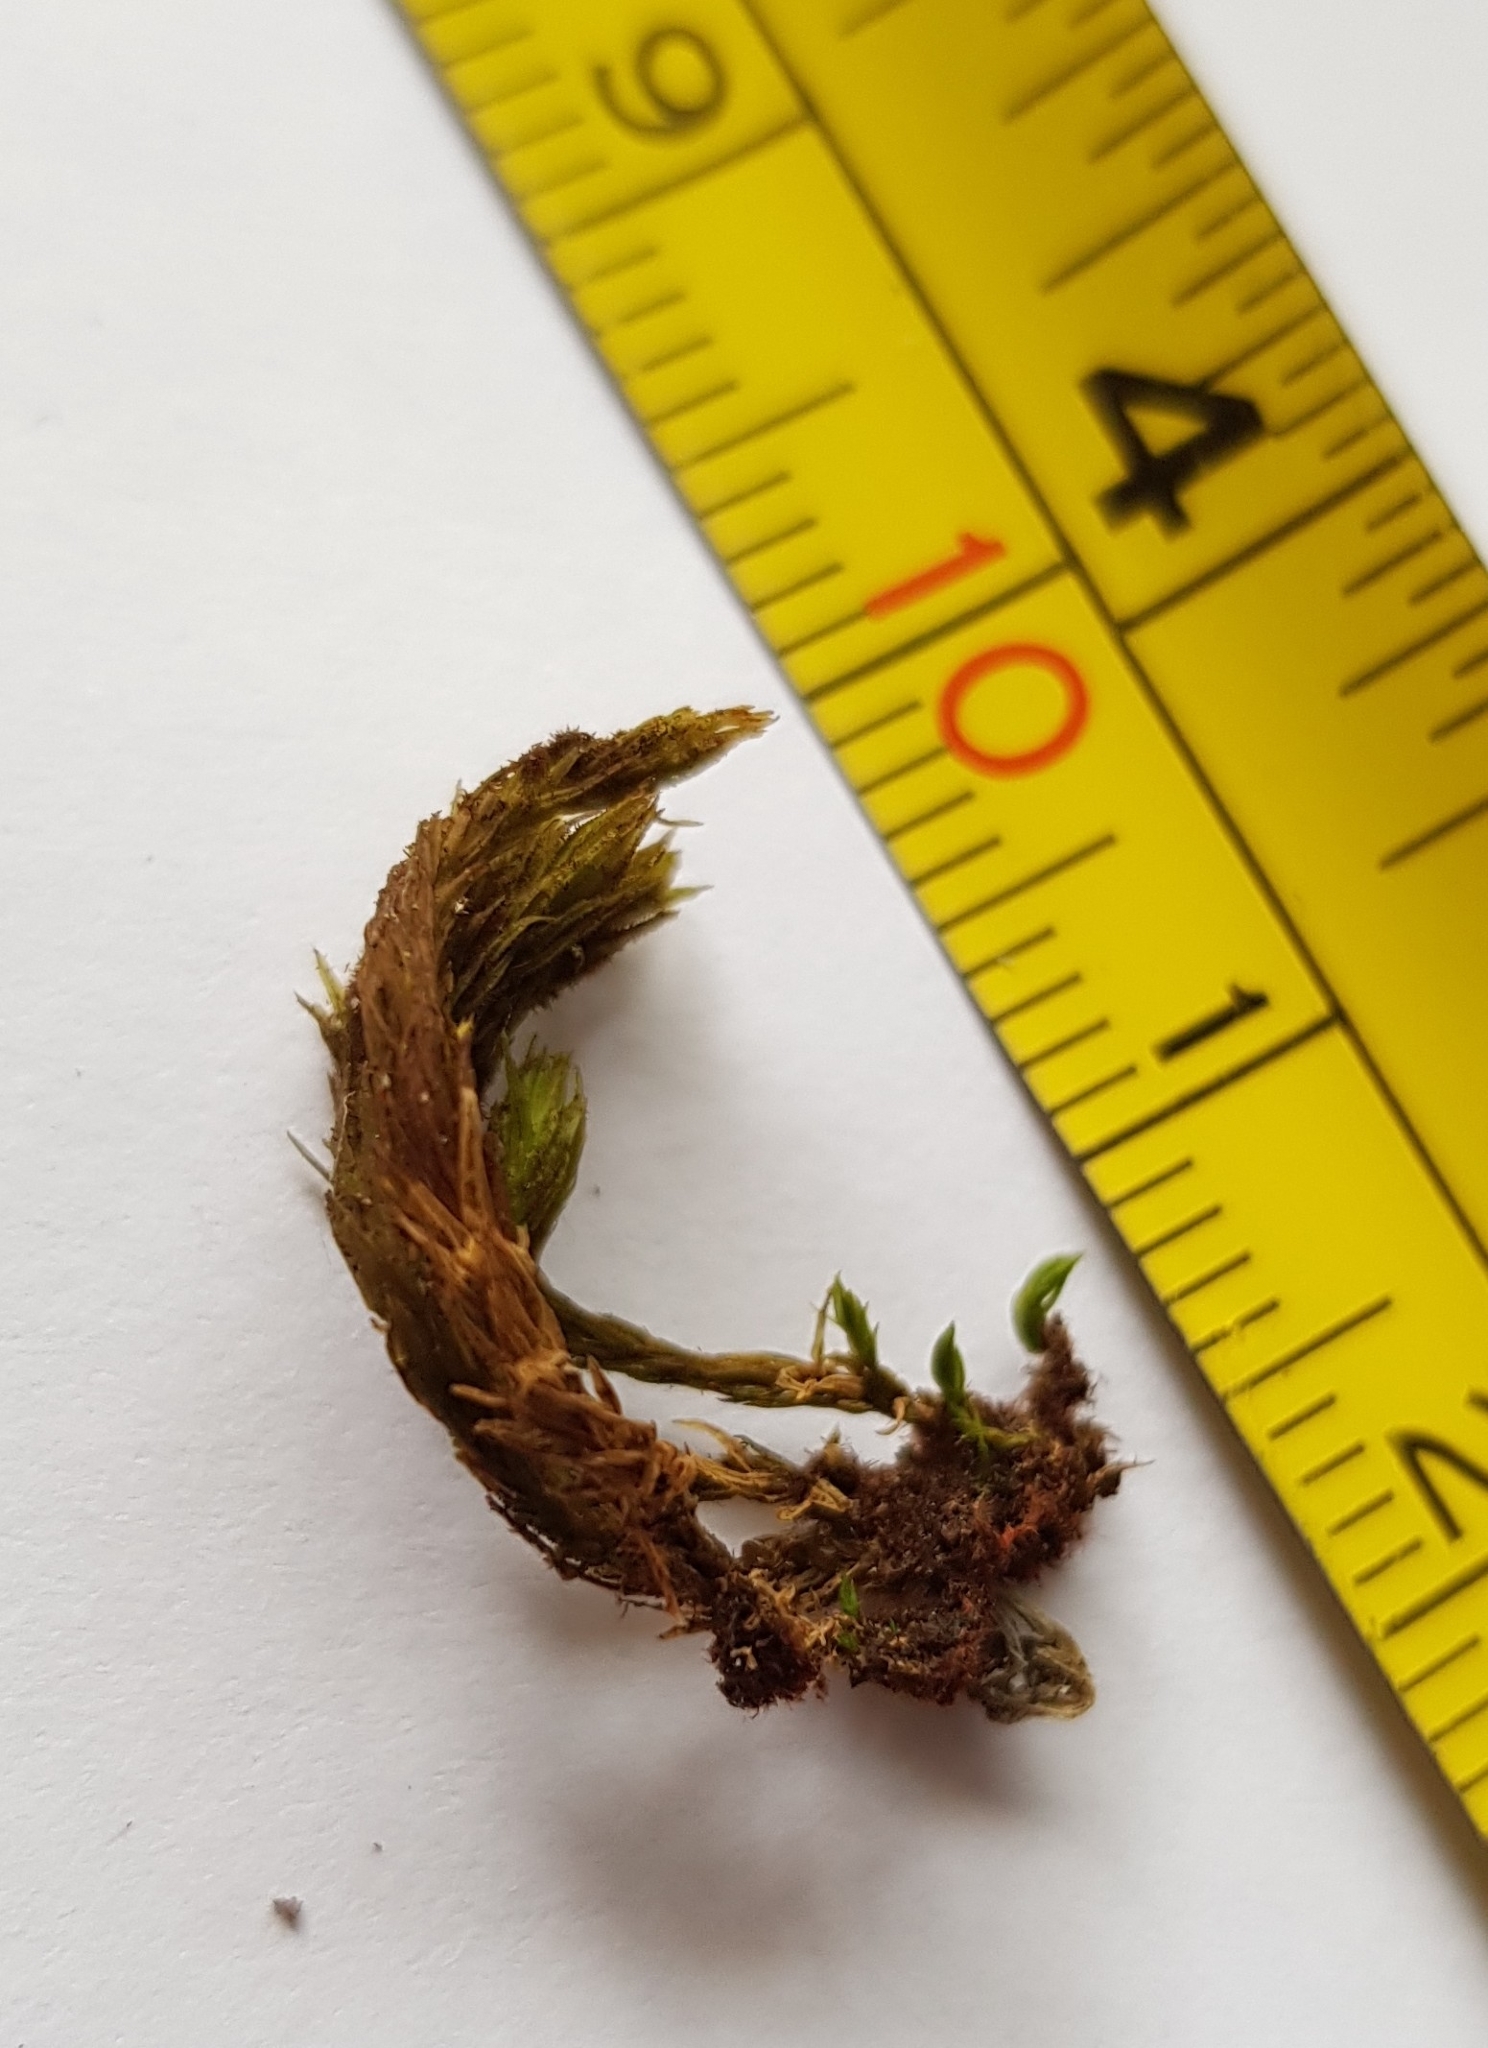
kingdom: Plantae
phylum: Bryophyta
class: Bryopsida
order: Orthotrichales
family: Orthotrichaceae
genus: Pulvigera
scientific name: Pulvigera lyellii
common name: Lyell's bristle-moss
